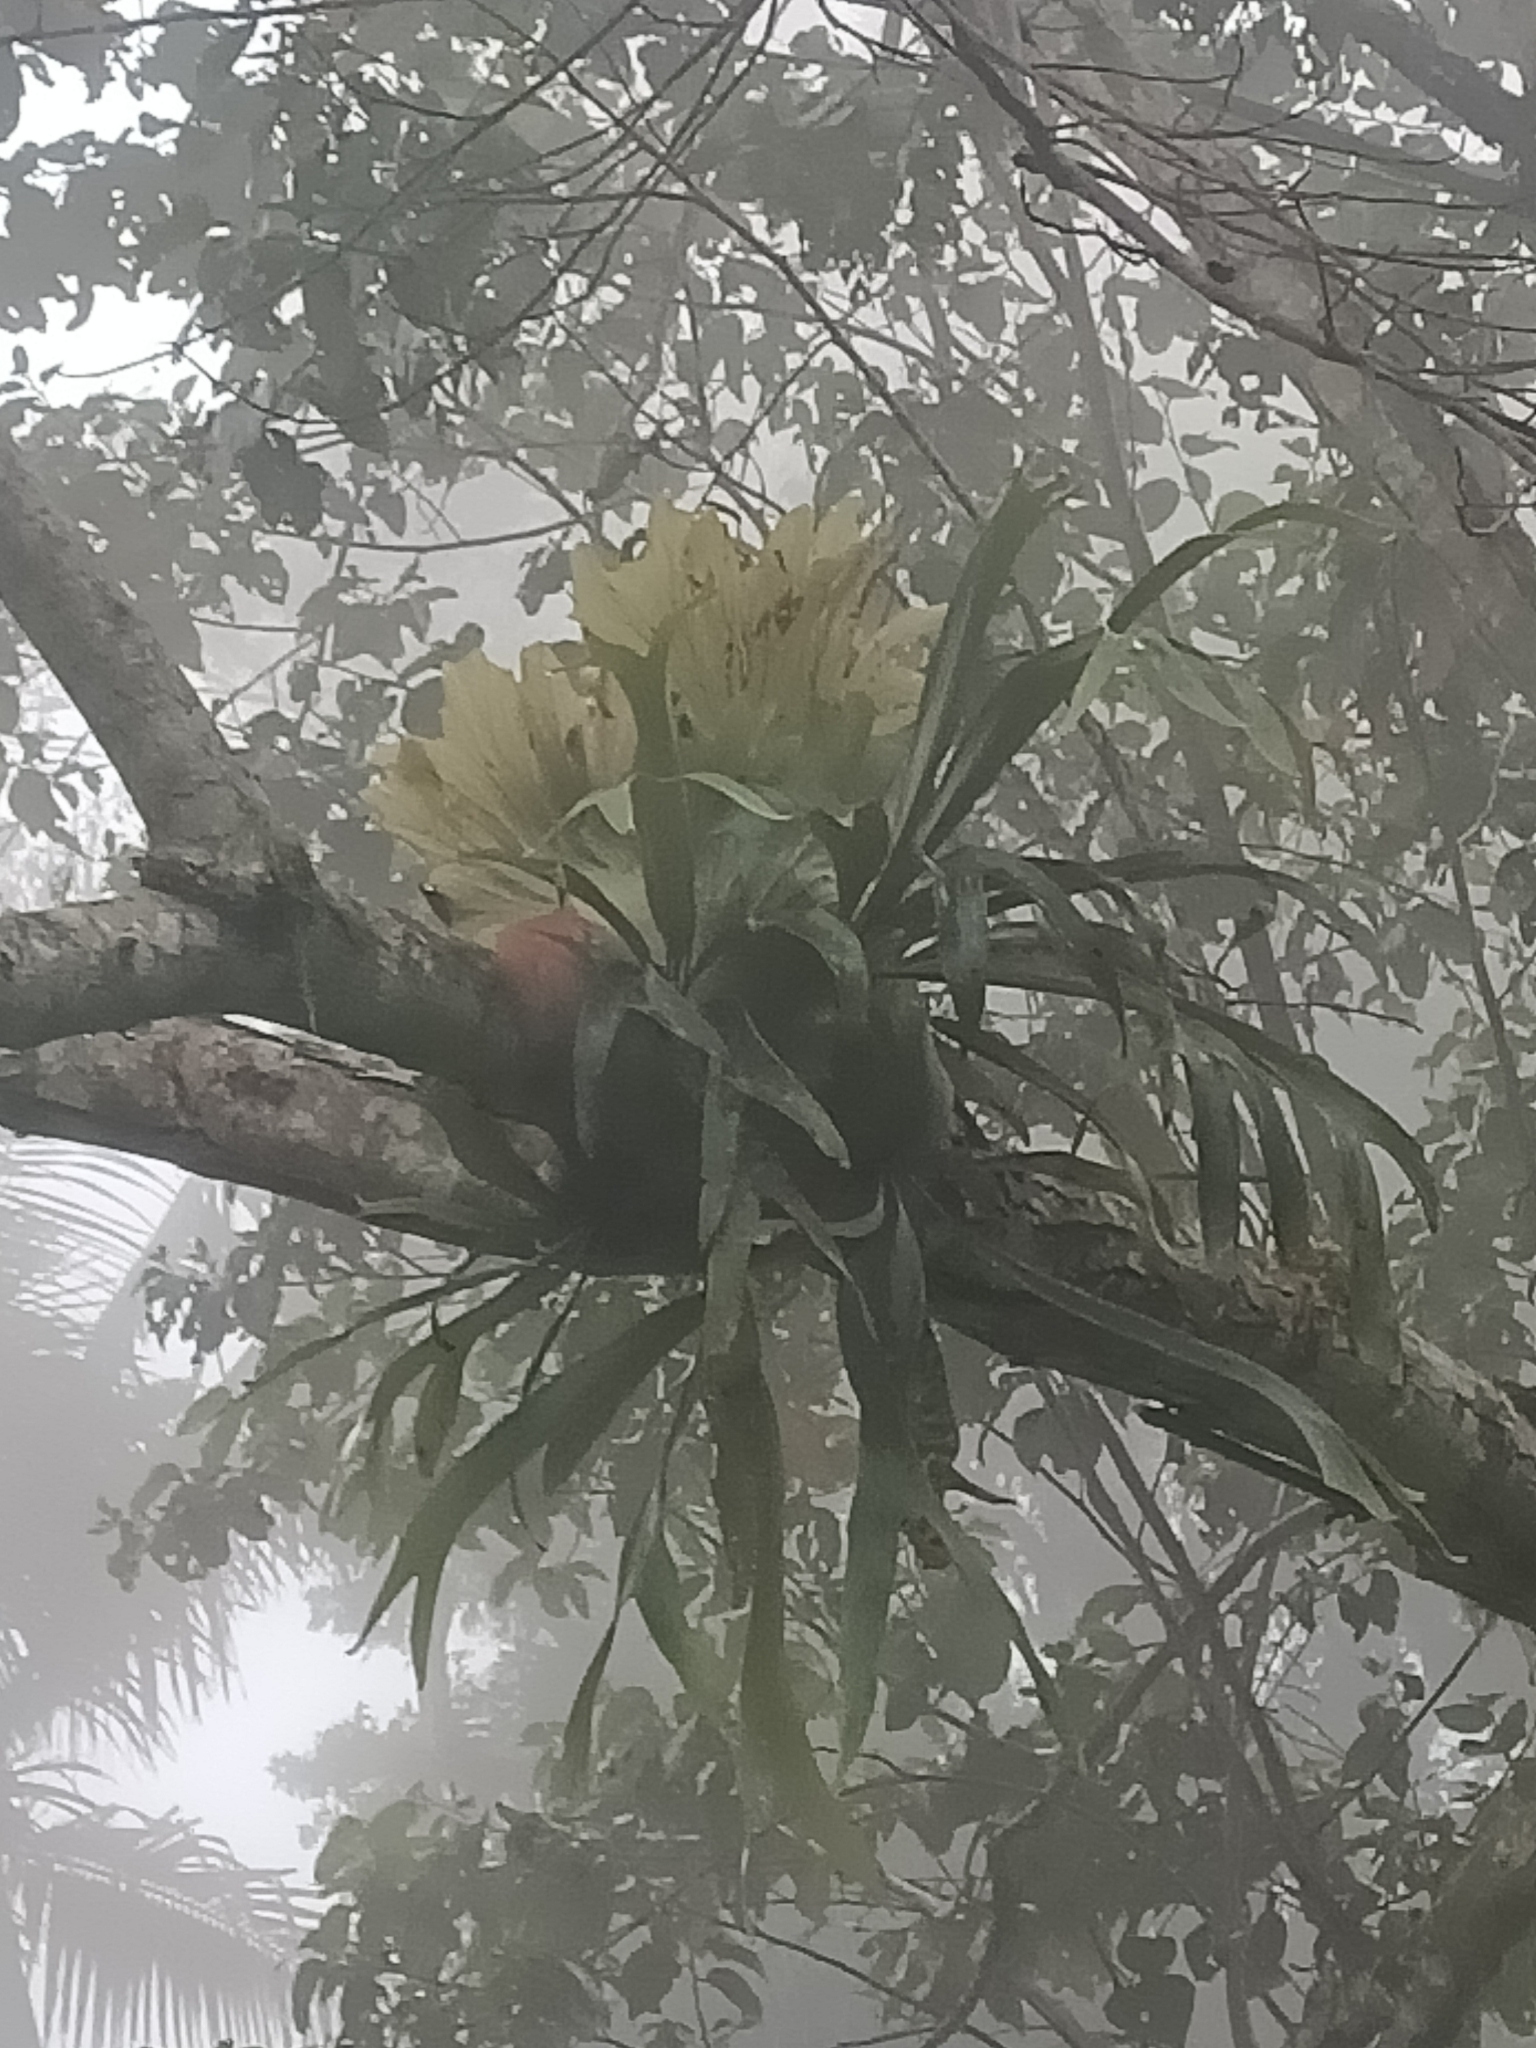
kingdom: Plantae
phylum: Tracheophyta
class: Polypodiopsida
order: Polypodiales
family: Polypodiaceae
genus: Platycerium
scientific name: Platycerium bifurcatum
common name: Elkhorn fern
